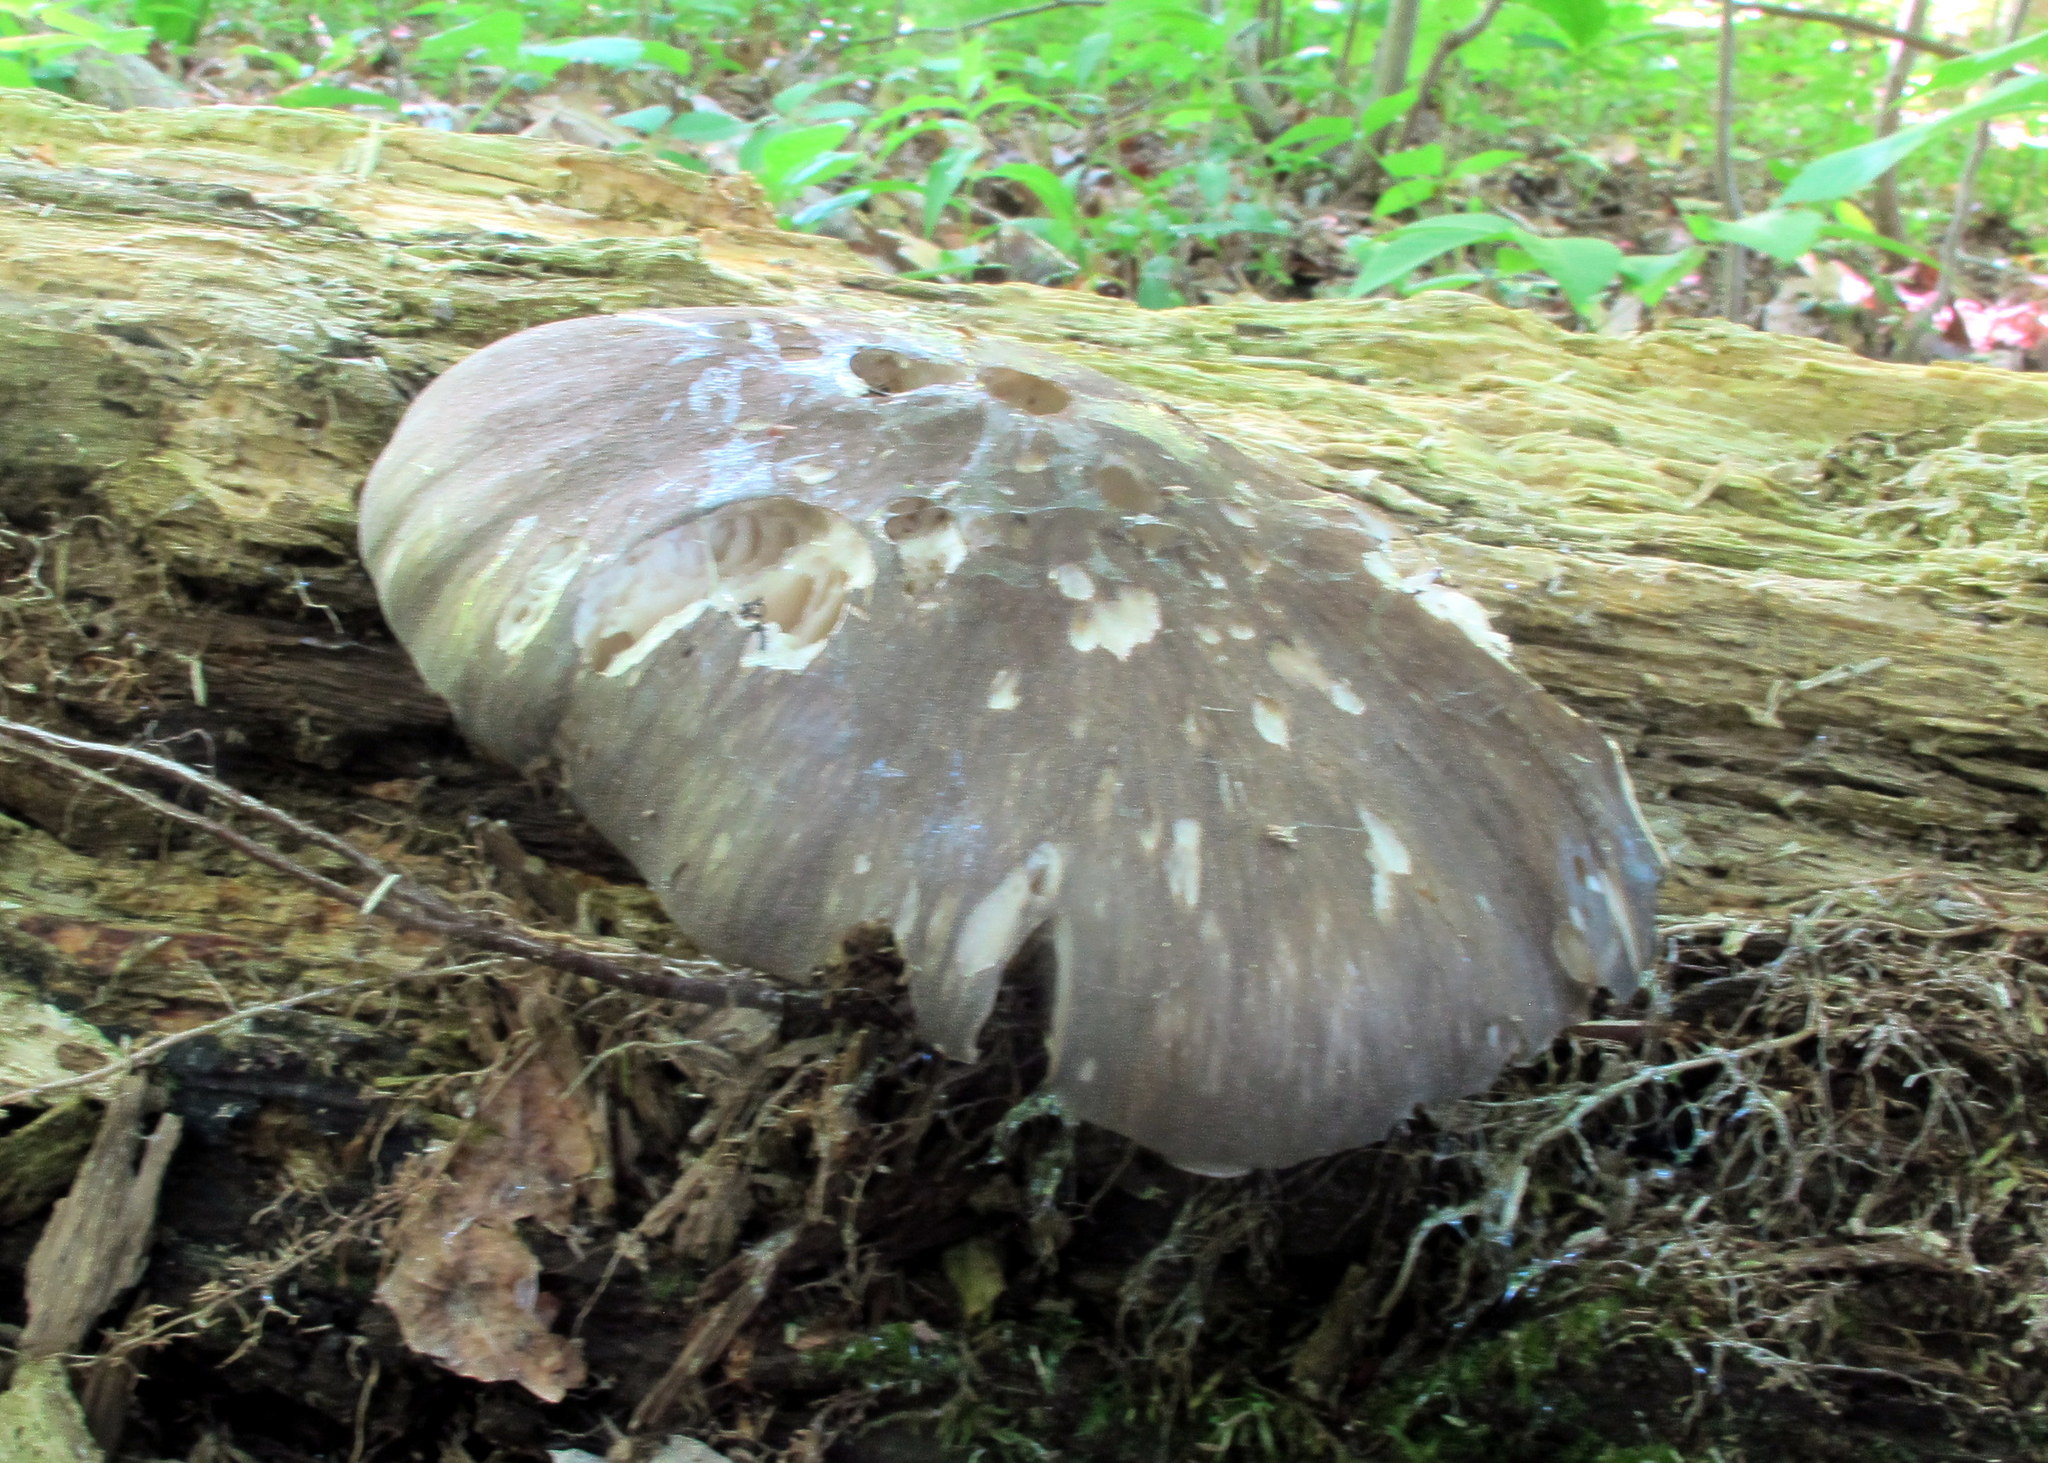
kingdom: Fungi
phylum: Basidiomycota
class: Agaricomycetes
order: Agaricales
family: Tricholomataceae
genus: Megacollybia
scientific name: Megacollybia rodmanii
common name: Eastern american platterful mushroom
